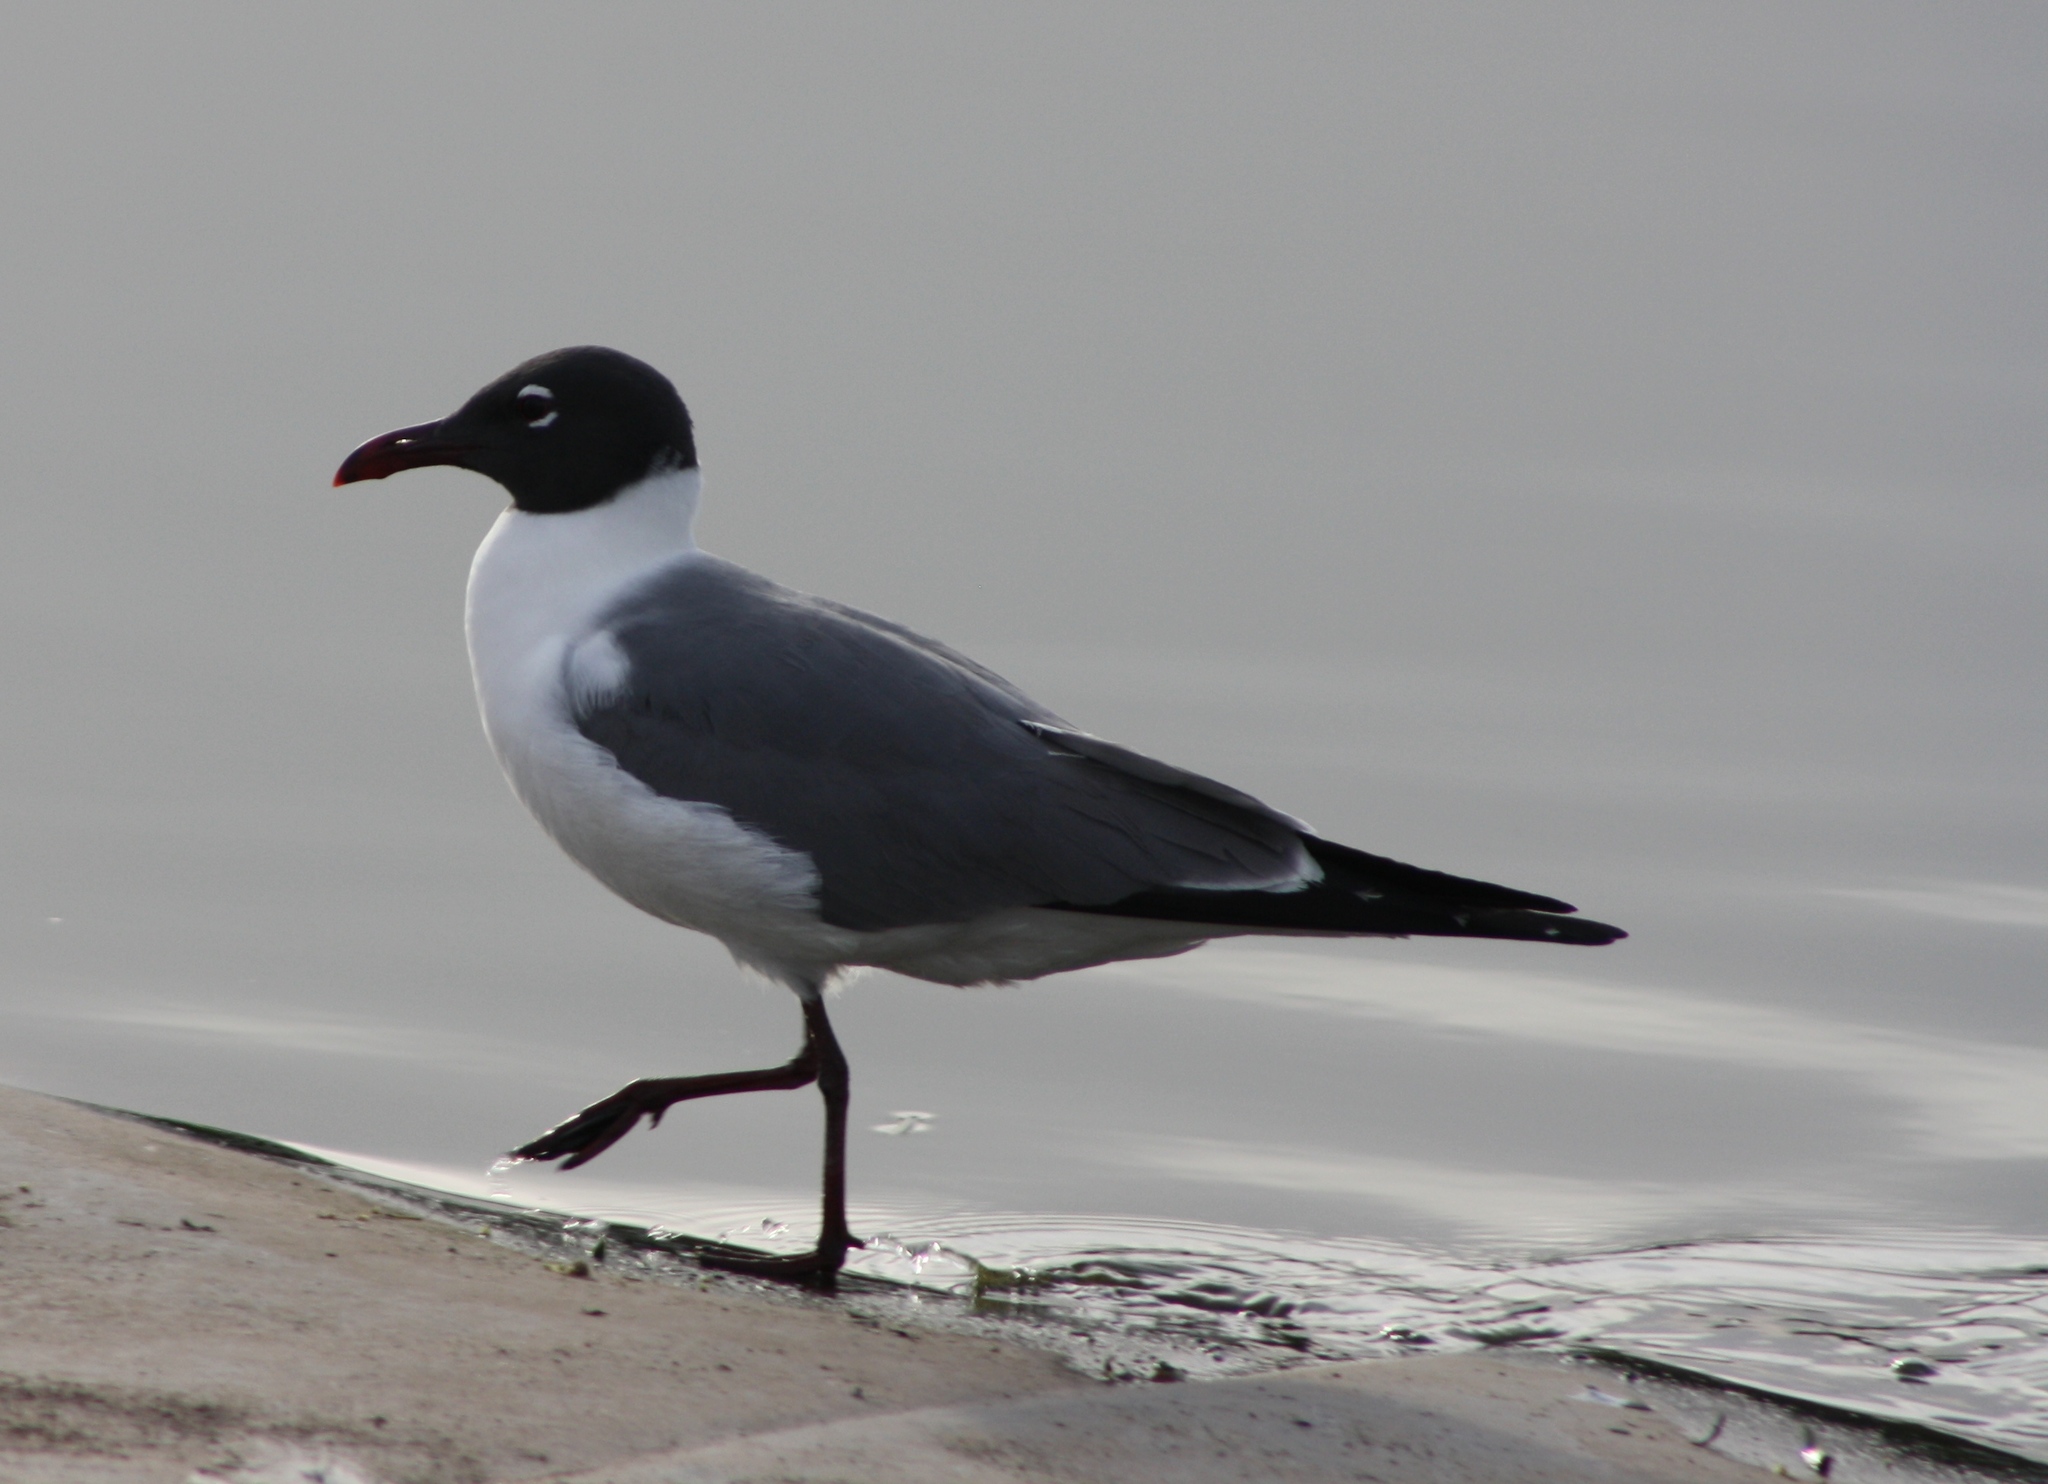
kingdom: Animalia
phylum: Chordata
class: Aves
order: Charadriiformes
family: Laridae
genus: Leucophaeus
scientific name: Leucophaeus atricilla
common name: Laughing gull
